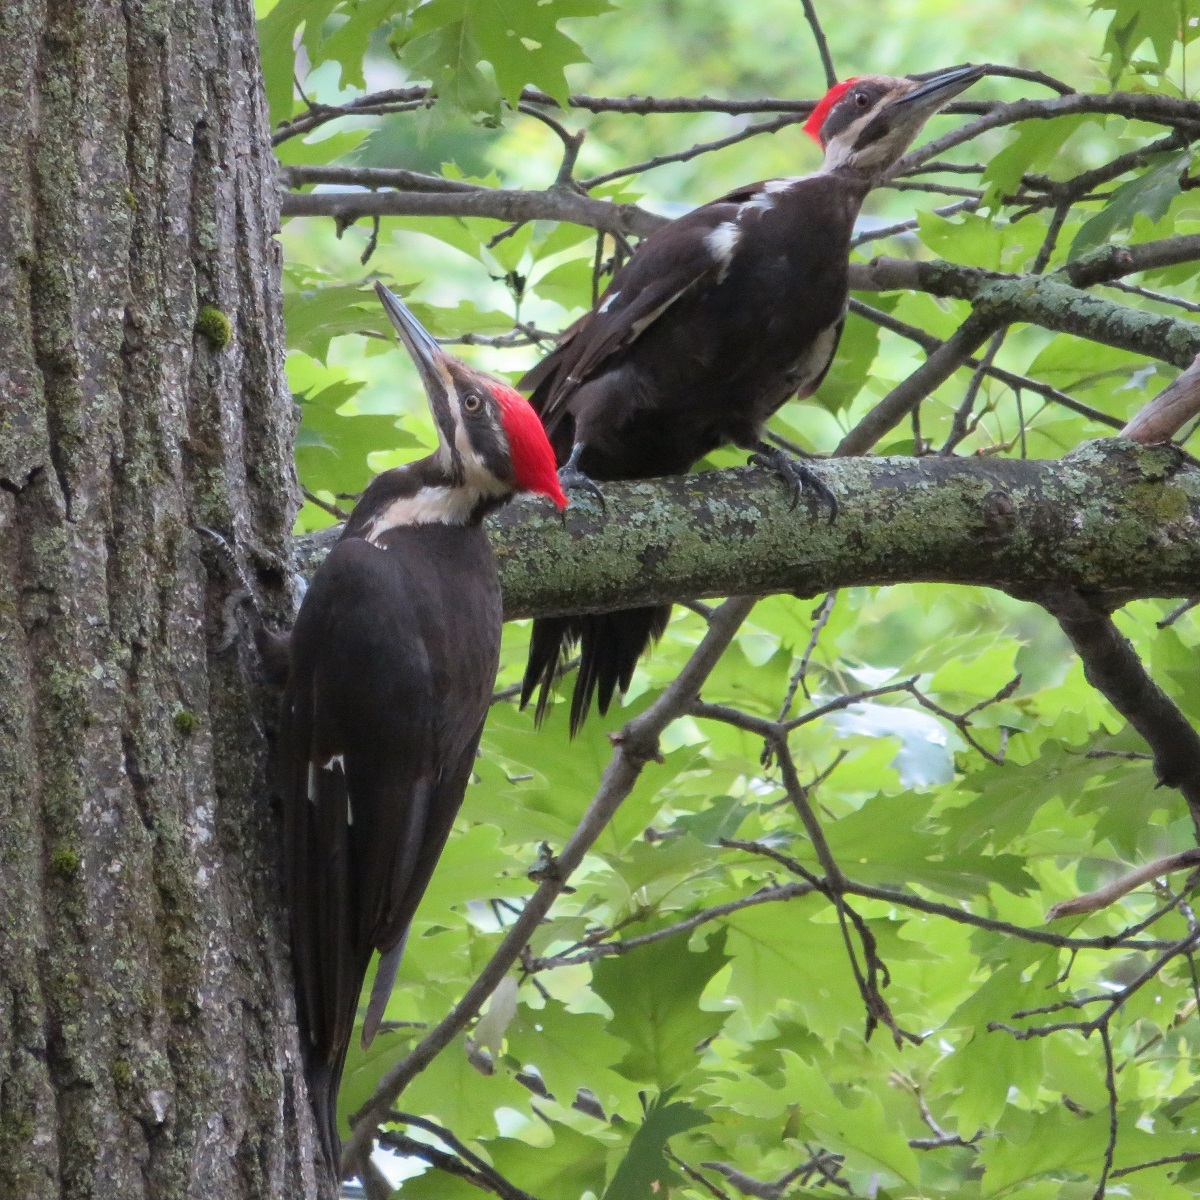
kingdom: Animalia
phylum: Chordata
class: Aves
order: Piciformes
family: Picidae
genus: Dryocopus
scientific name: Dryocopus pileatus
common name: Pileated woodpecker
